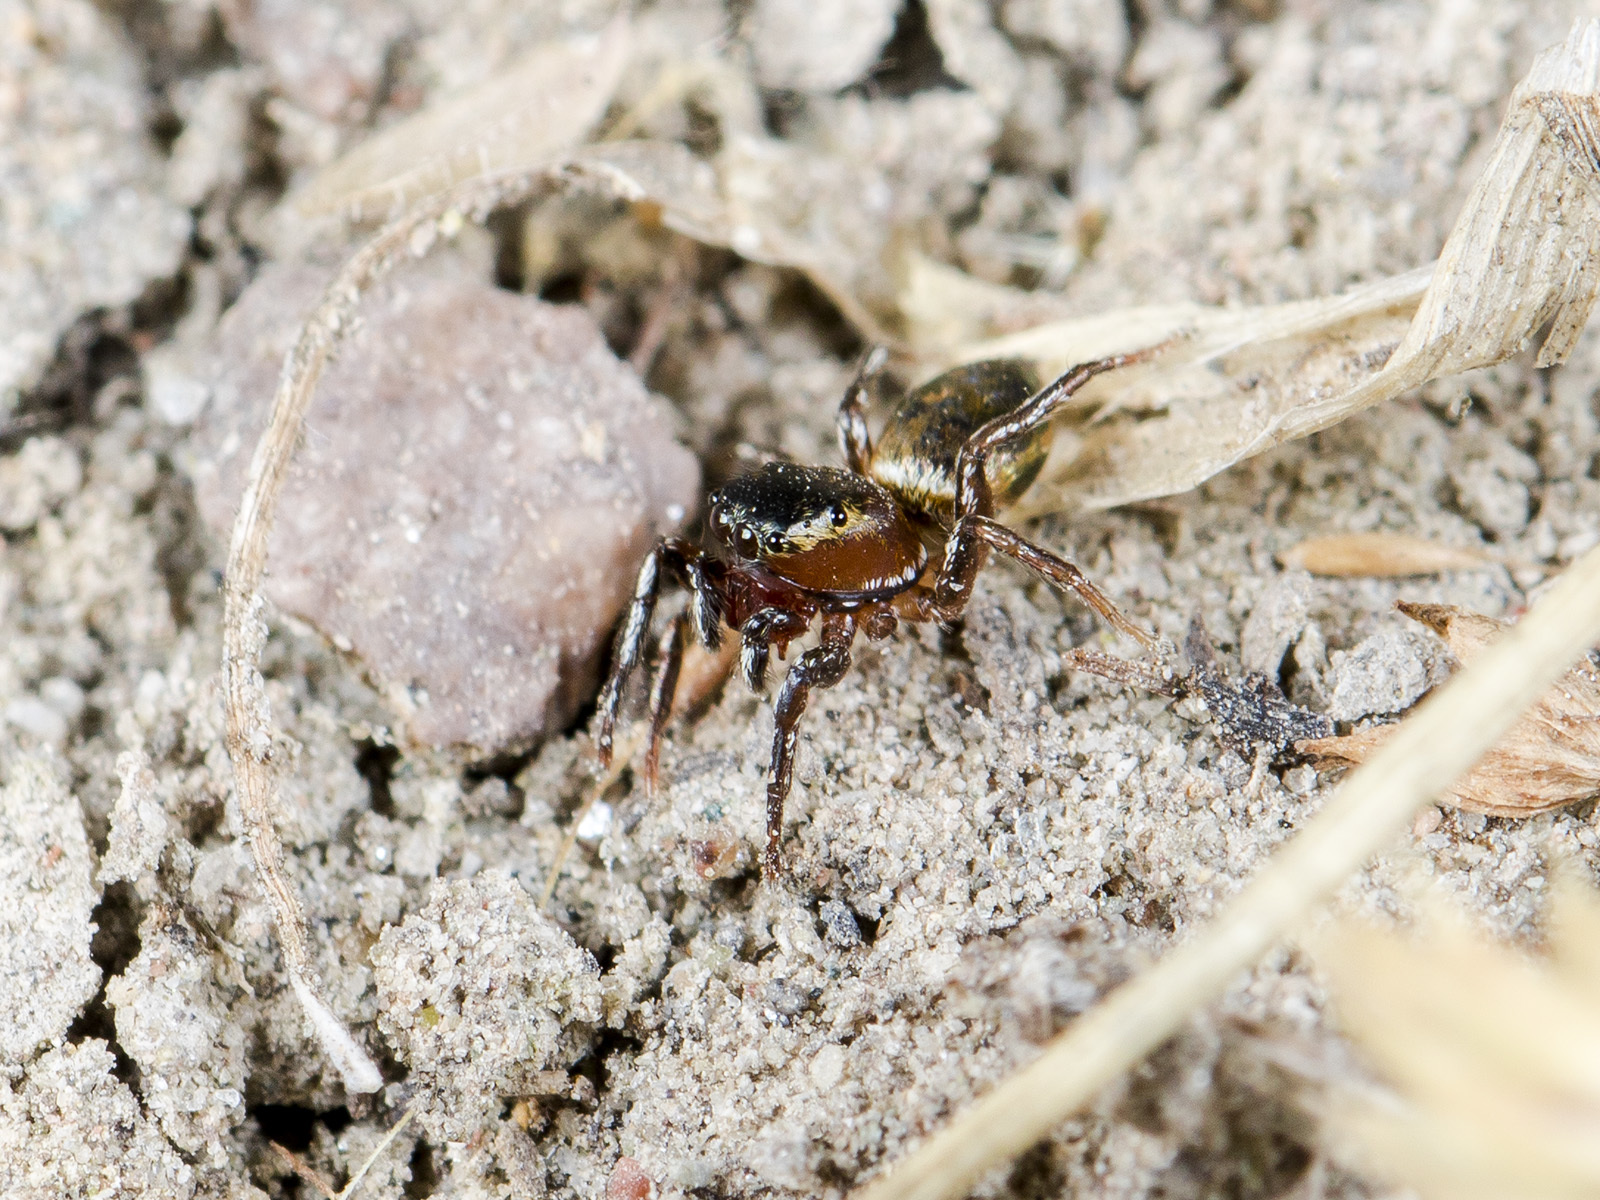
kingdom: Animalia
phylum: Arthropoda
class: Arachnida
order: Araneae
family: Salticidae
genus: Heliophanus
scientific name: Heliophanus potanini
